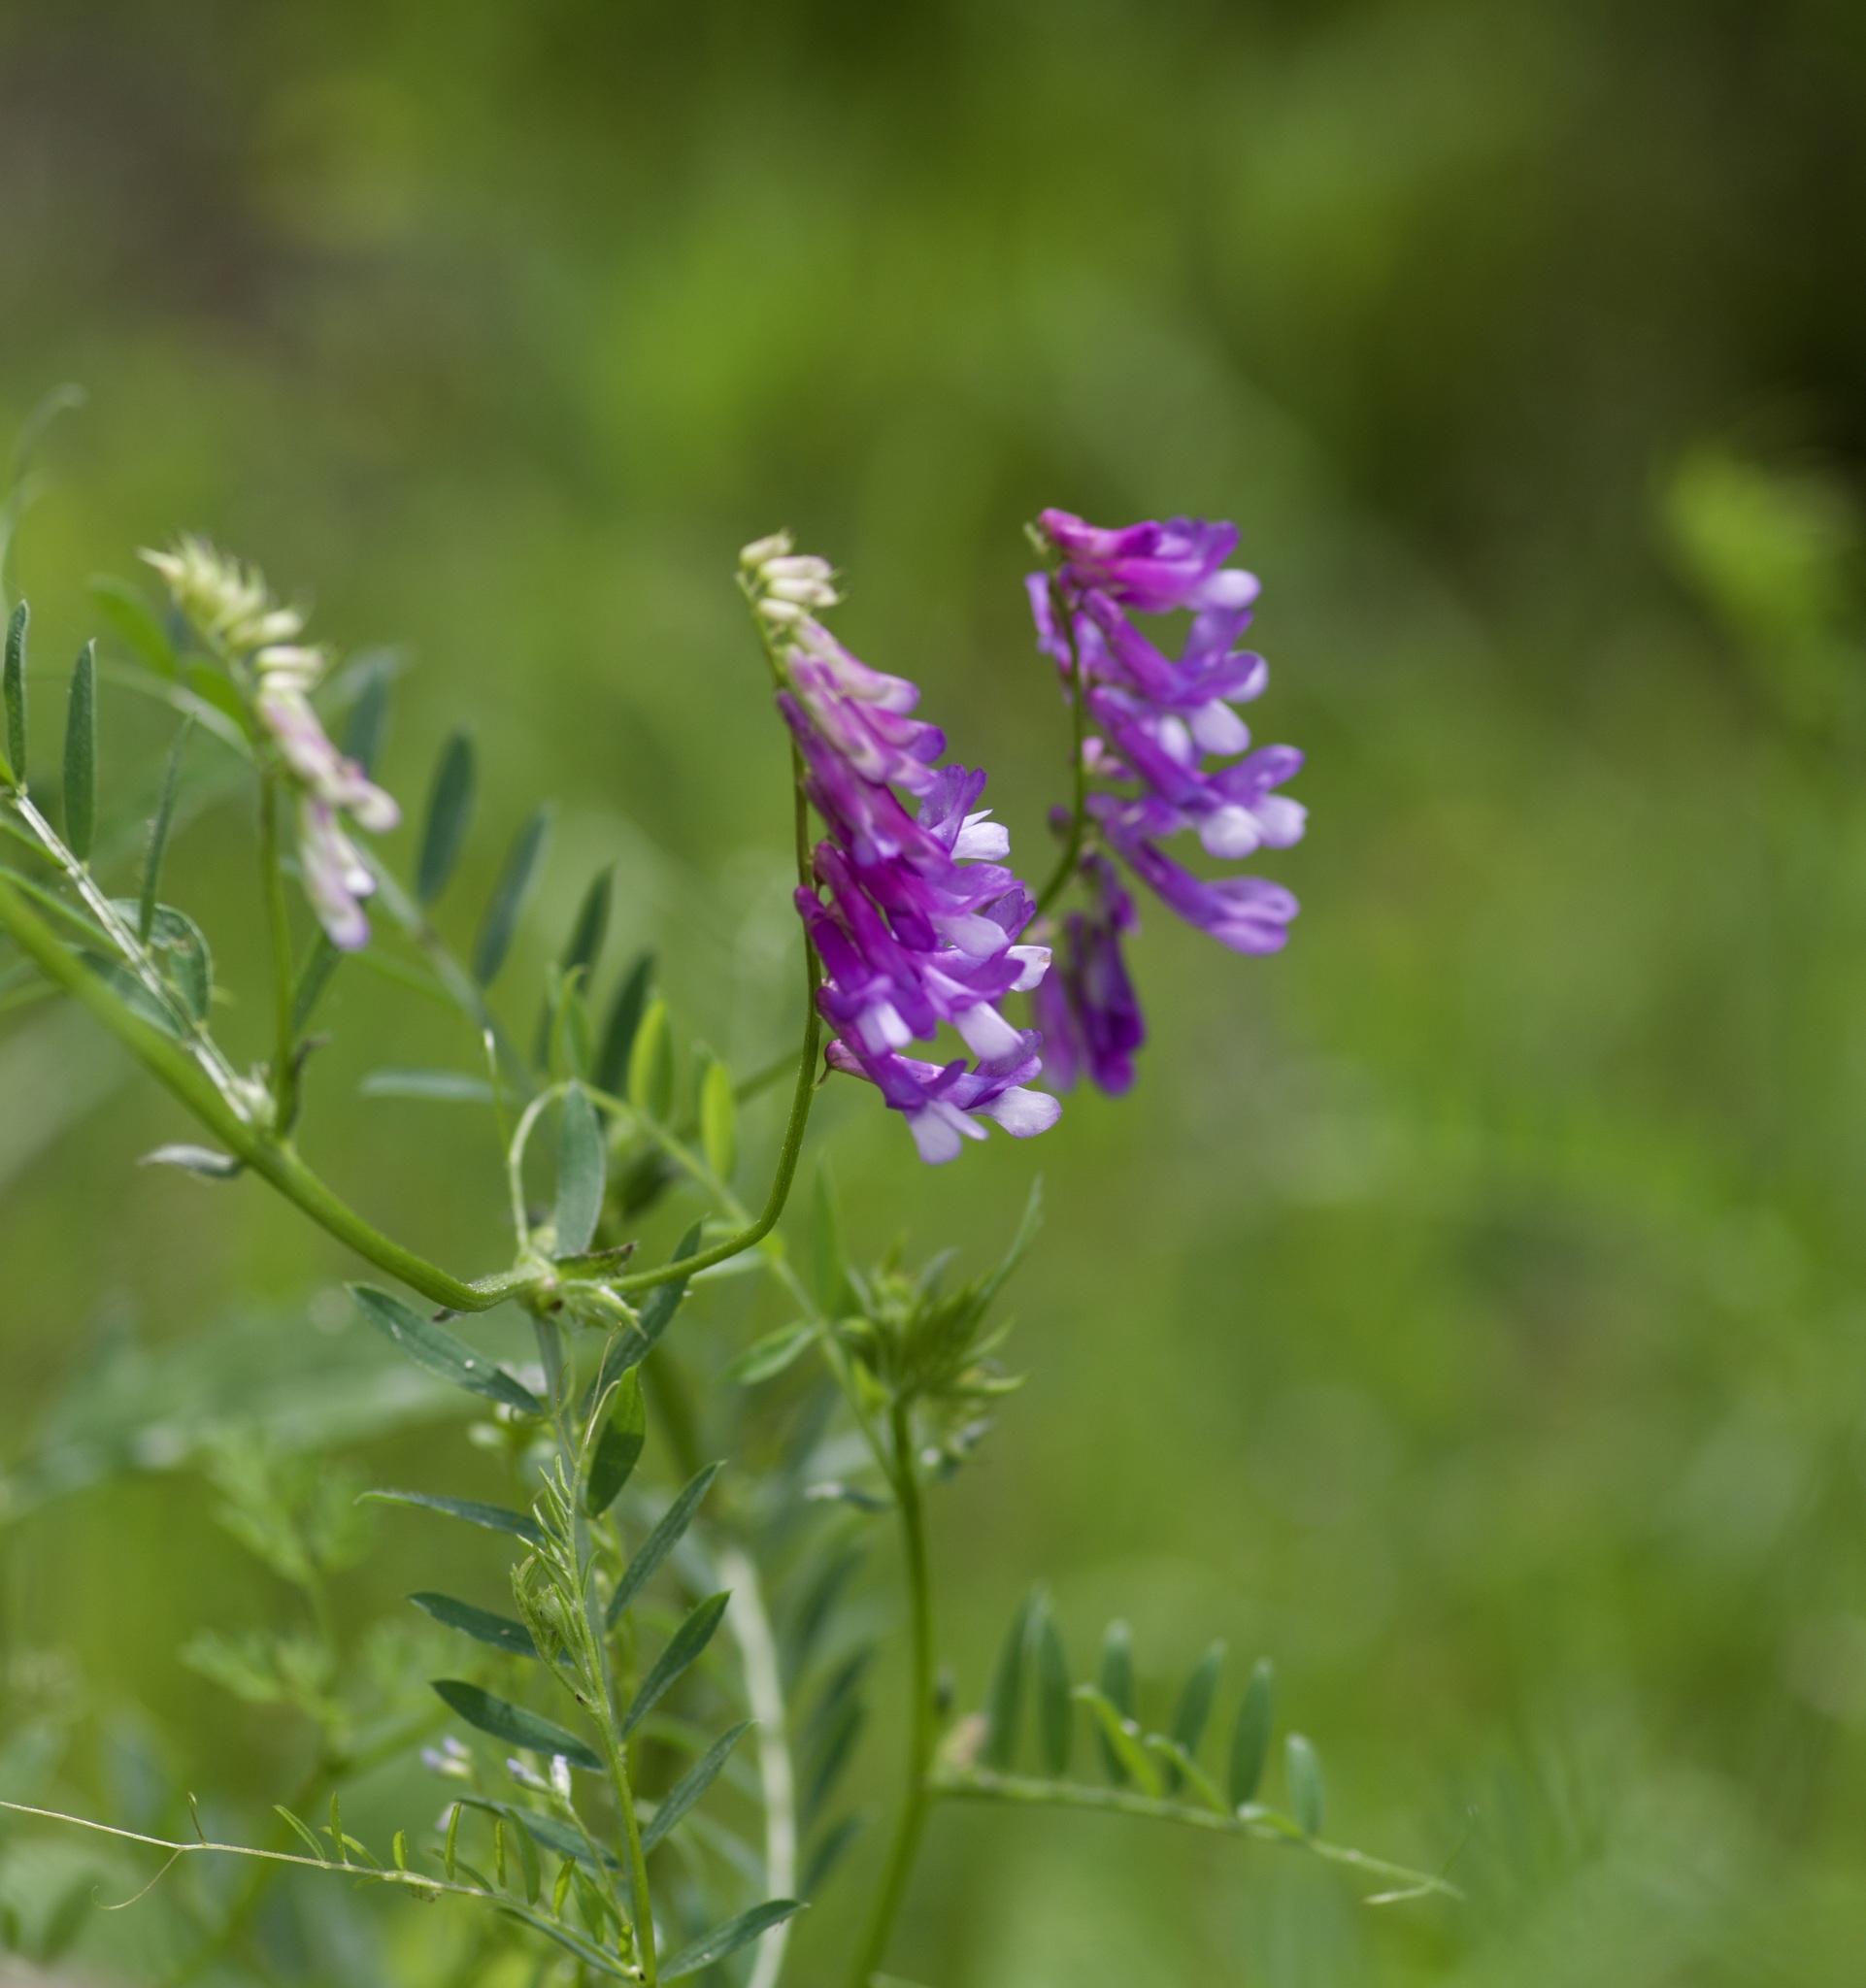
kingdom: Plantae
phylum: Tracheophyta
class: Magnoliopsida
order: Fabales
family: Fabaceae
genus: Vicia
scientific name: Vicia villosa
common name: Fodder vetch
